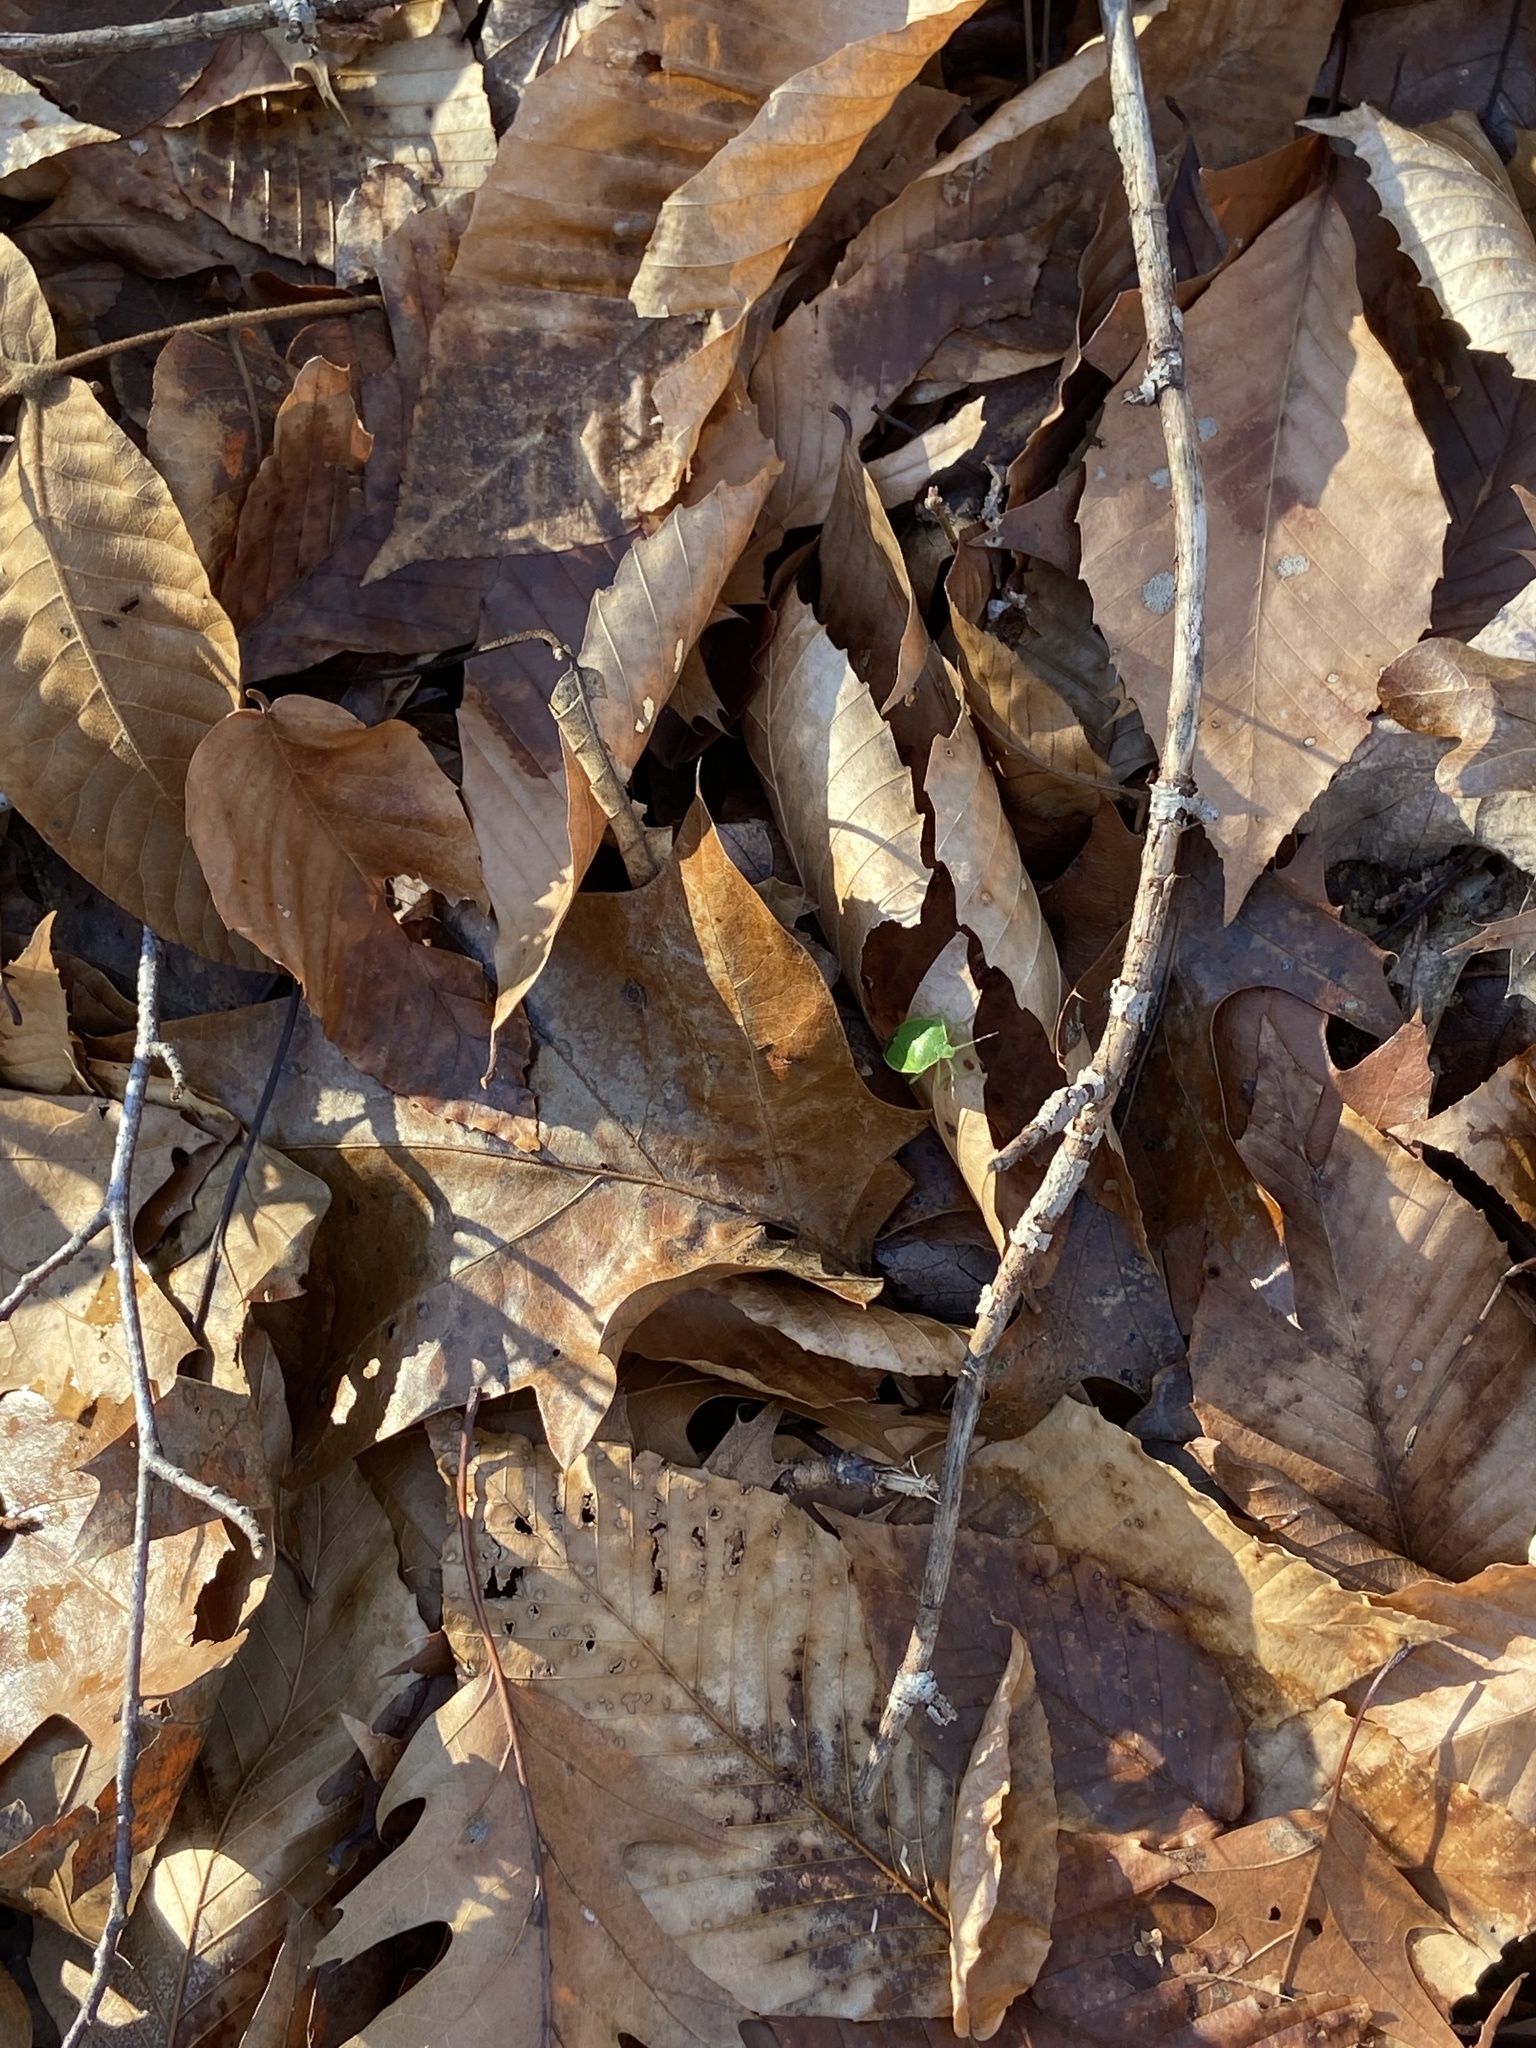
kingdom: Animalia
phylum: Arthropoda
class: Insecta
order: Hemiptera
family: Pentatomidae
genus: Chinavia
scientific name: Chinavia hilaris
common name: Green stink bug
